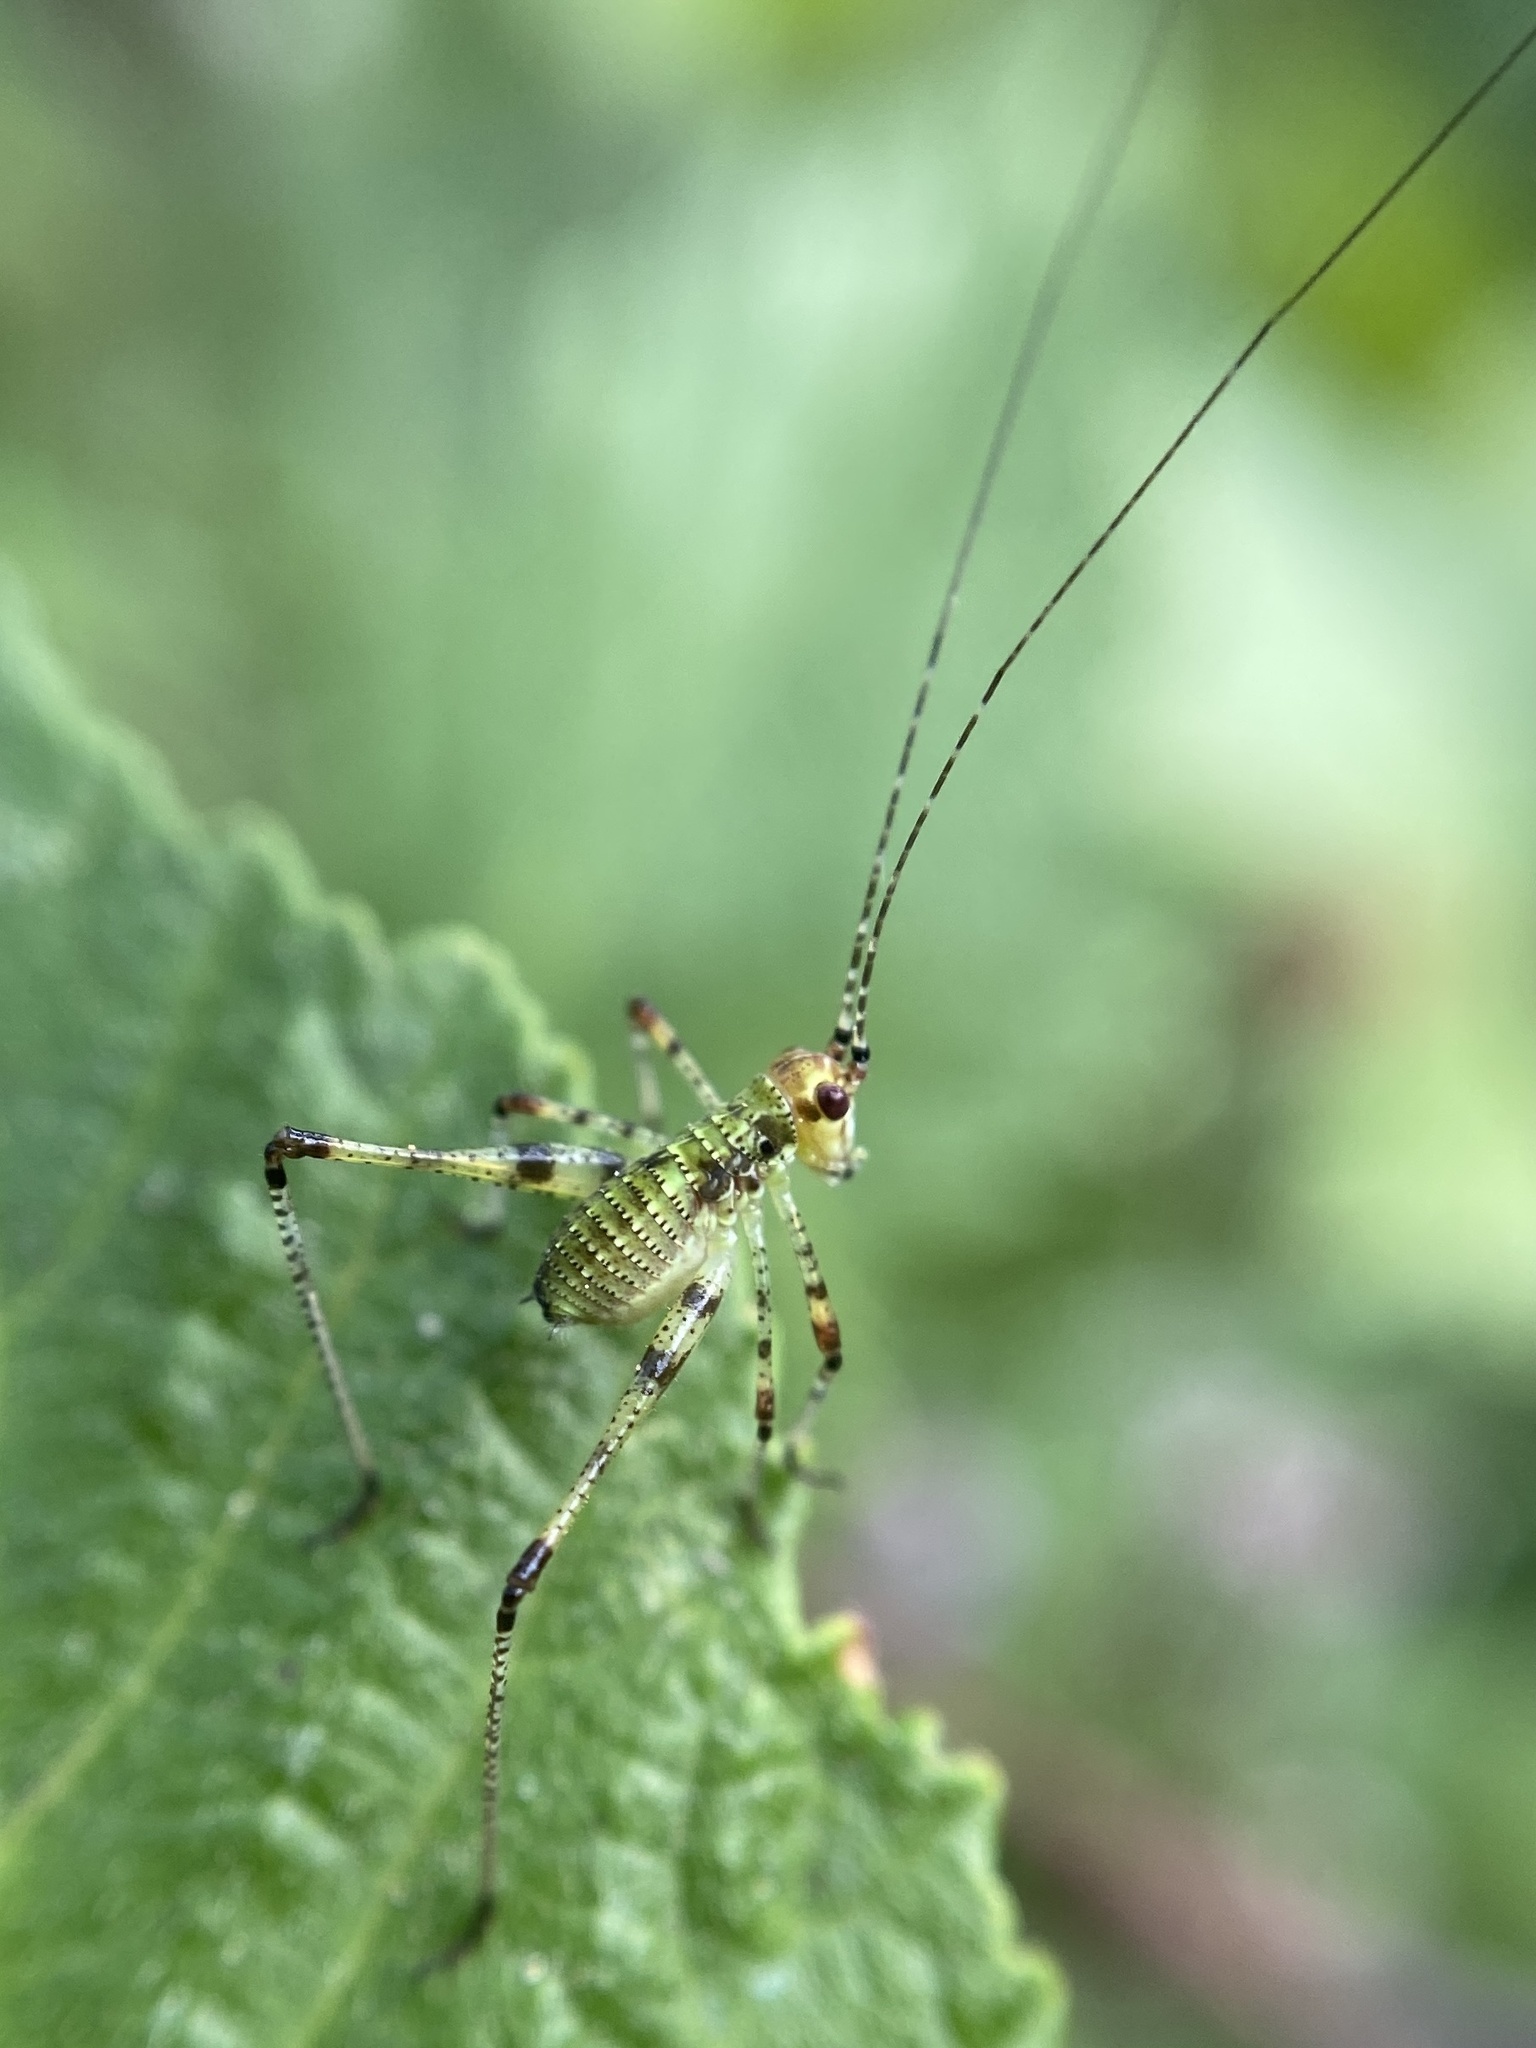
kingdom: Animalia
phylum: Arthropoda
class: Insecta
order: Orthoptera
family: Tettigoniidae
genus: Phaneroptera
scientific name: Phaneroptera nana
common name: Southern sickle bush-cricket
